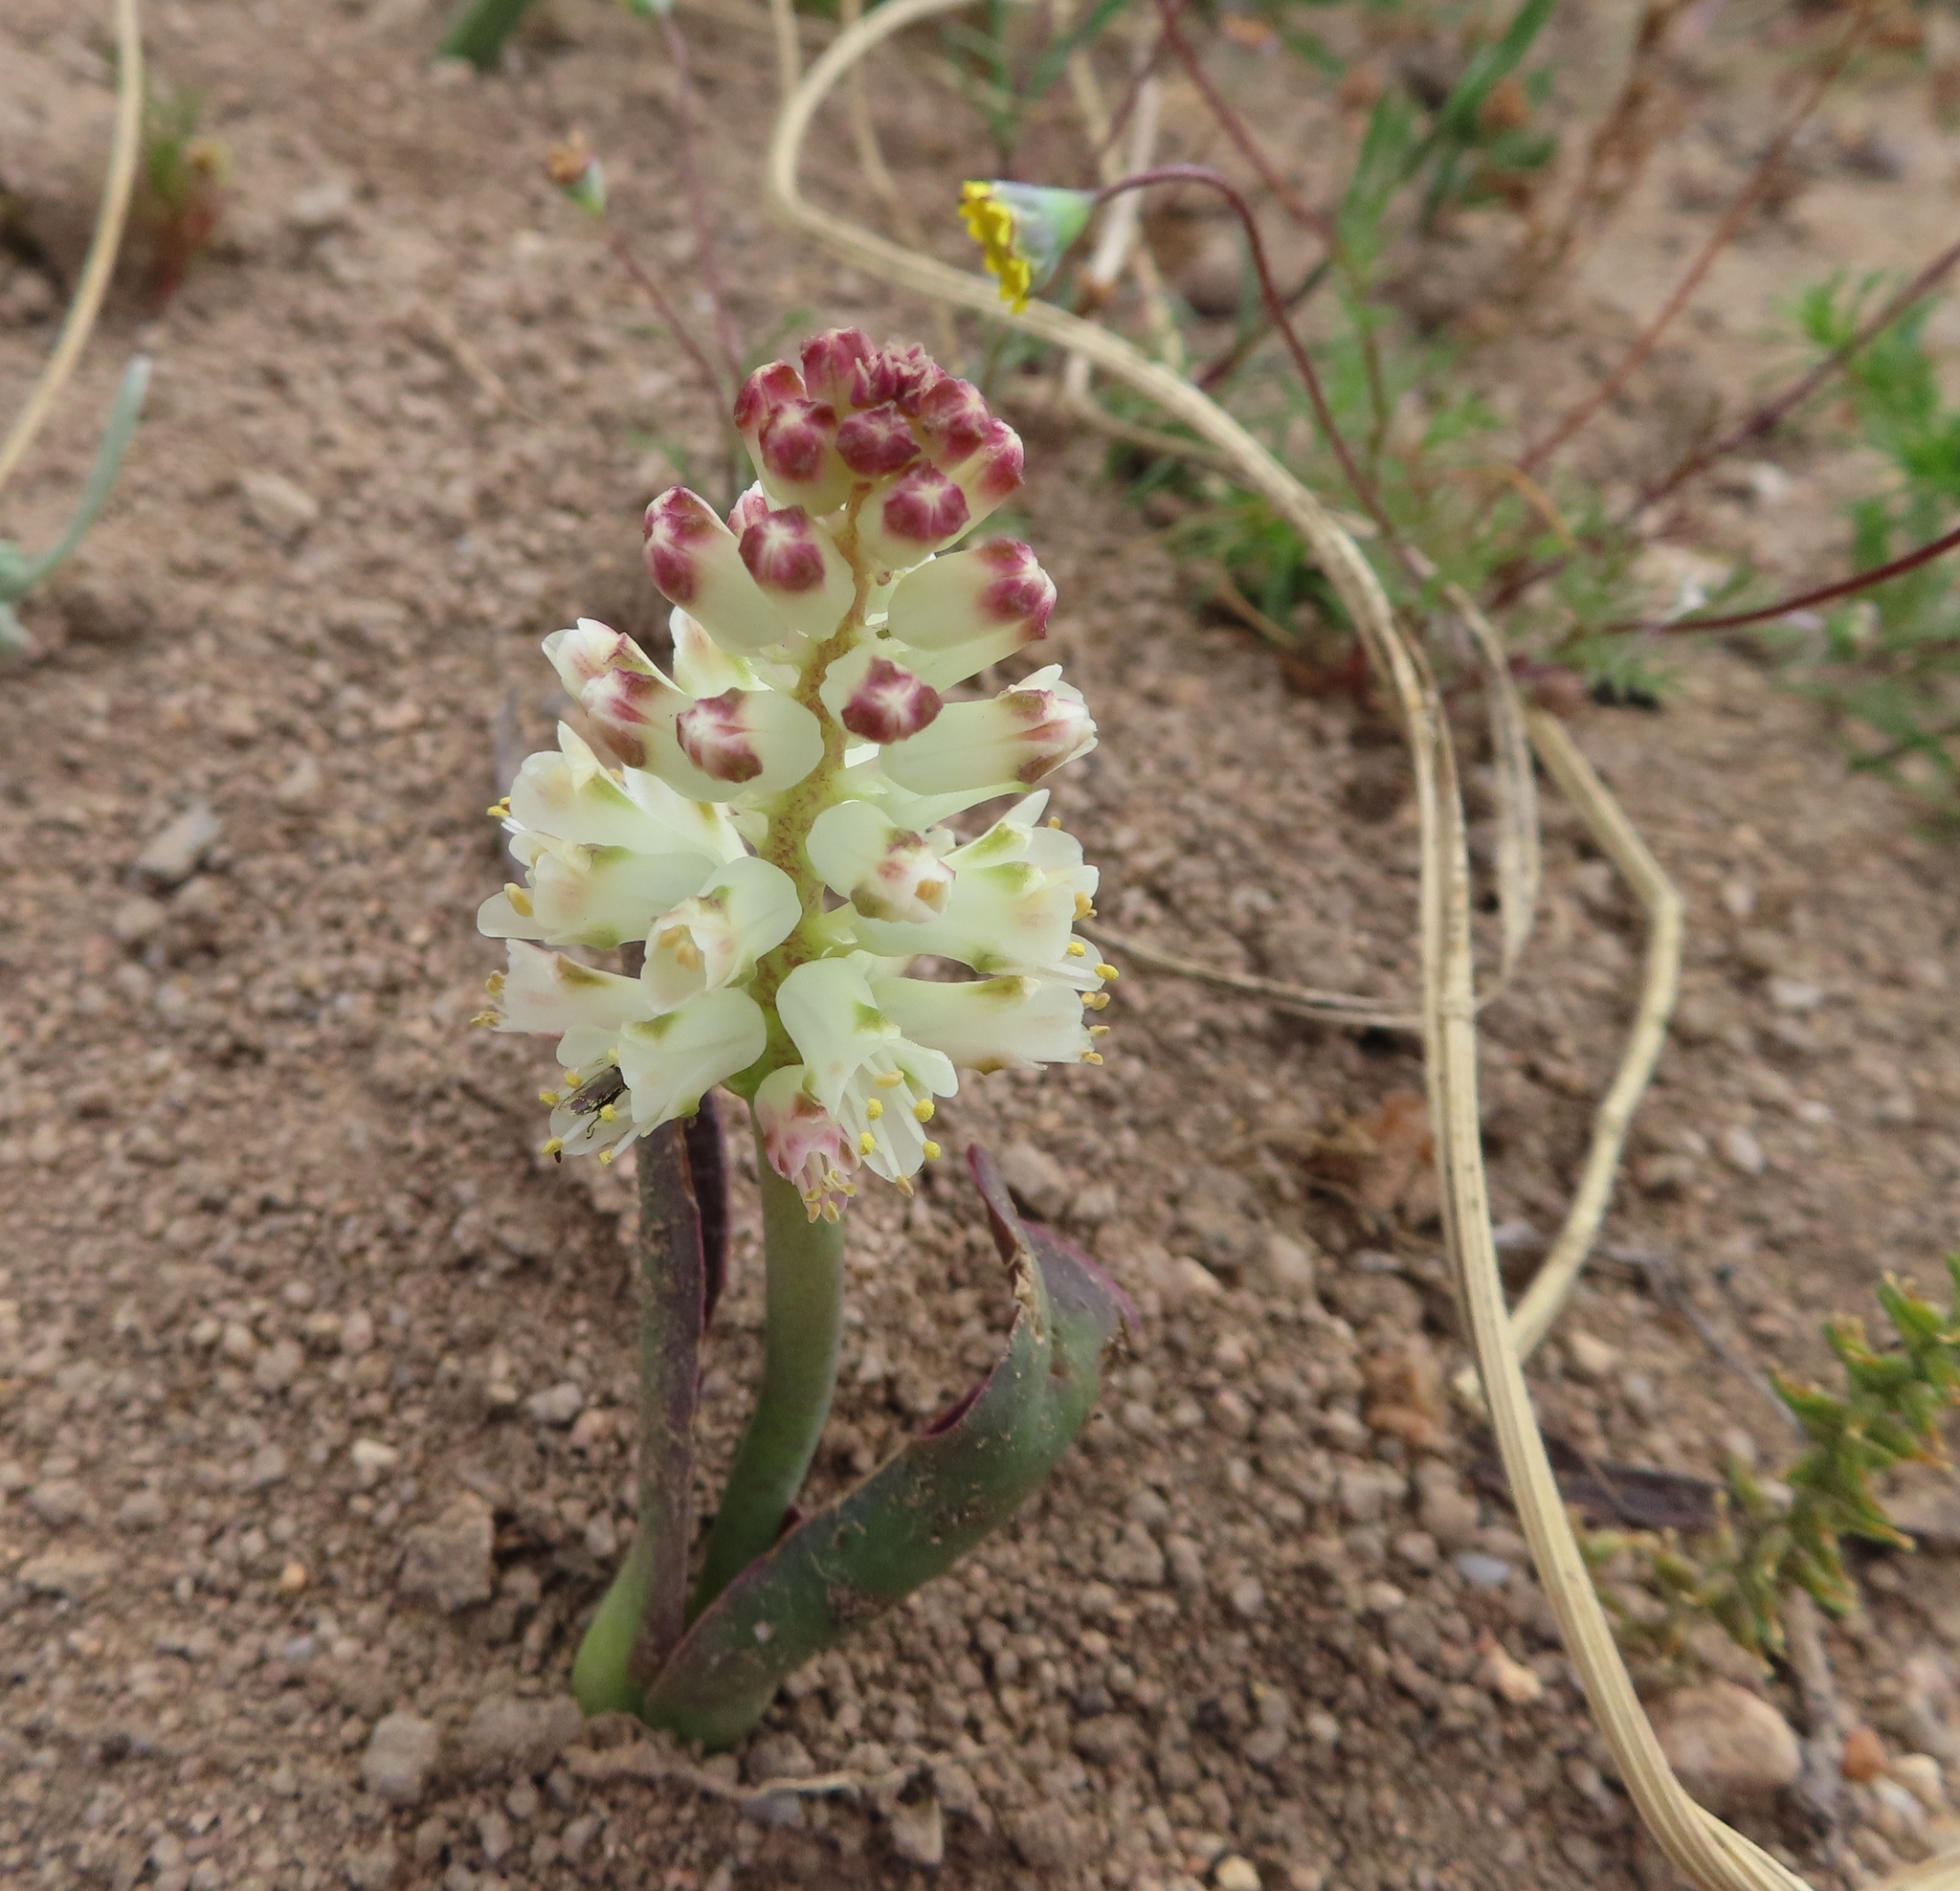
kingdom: Plantae
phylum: Tracheophyta
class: Liliopsida
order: Asparagales
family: Asparagaceae
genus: Lachenalia
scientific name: Lachenalia liliiflora
